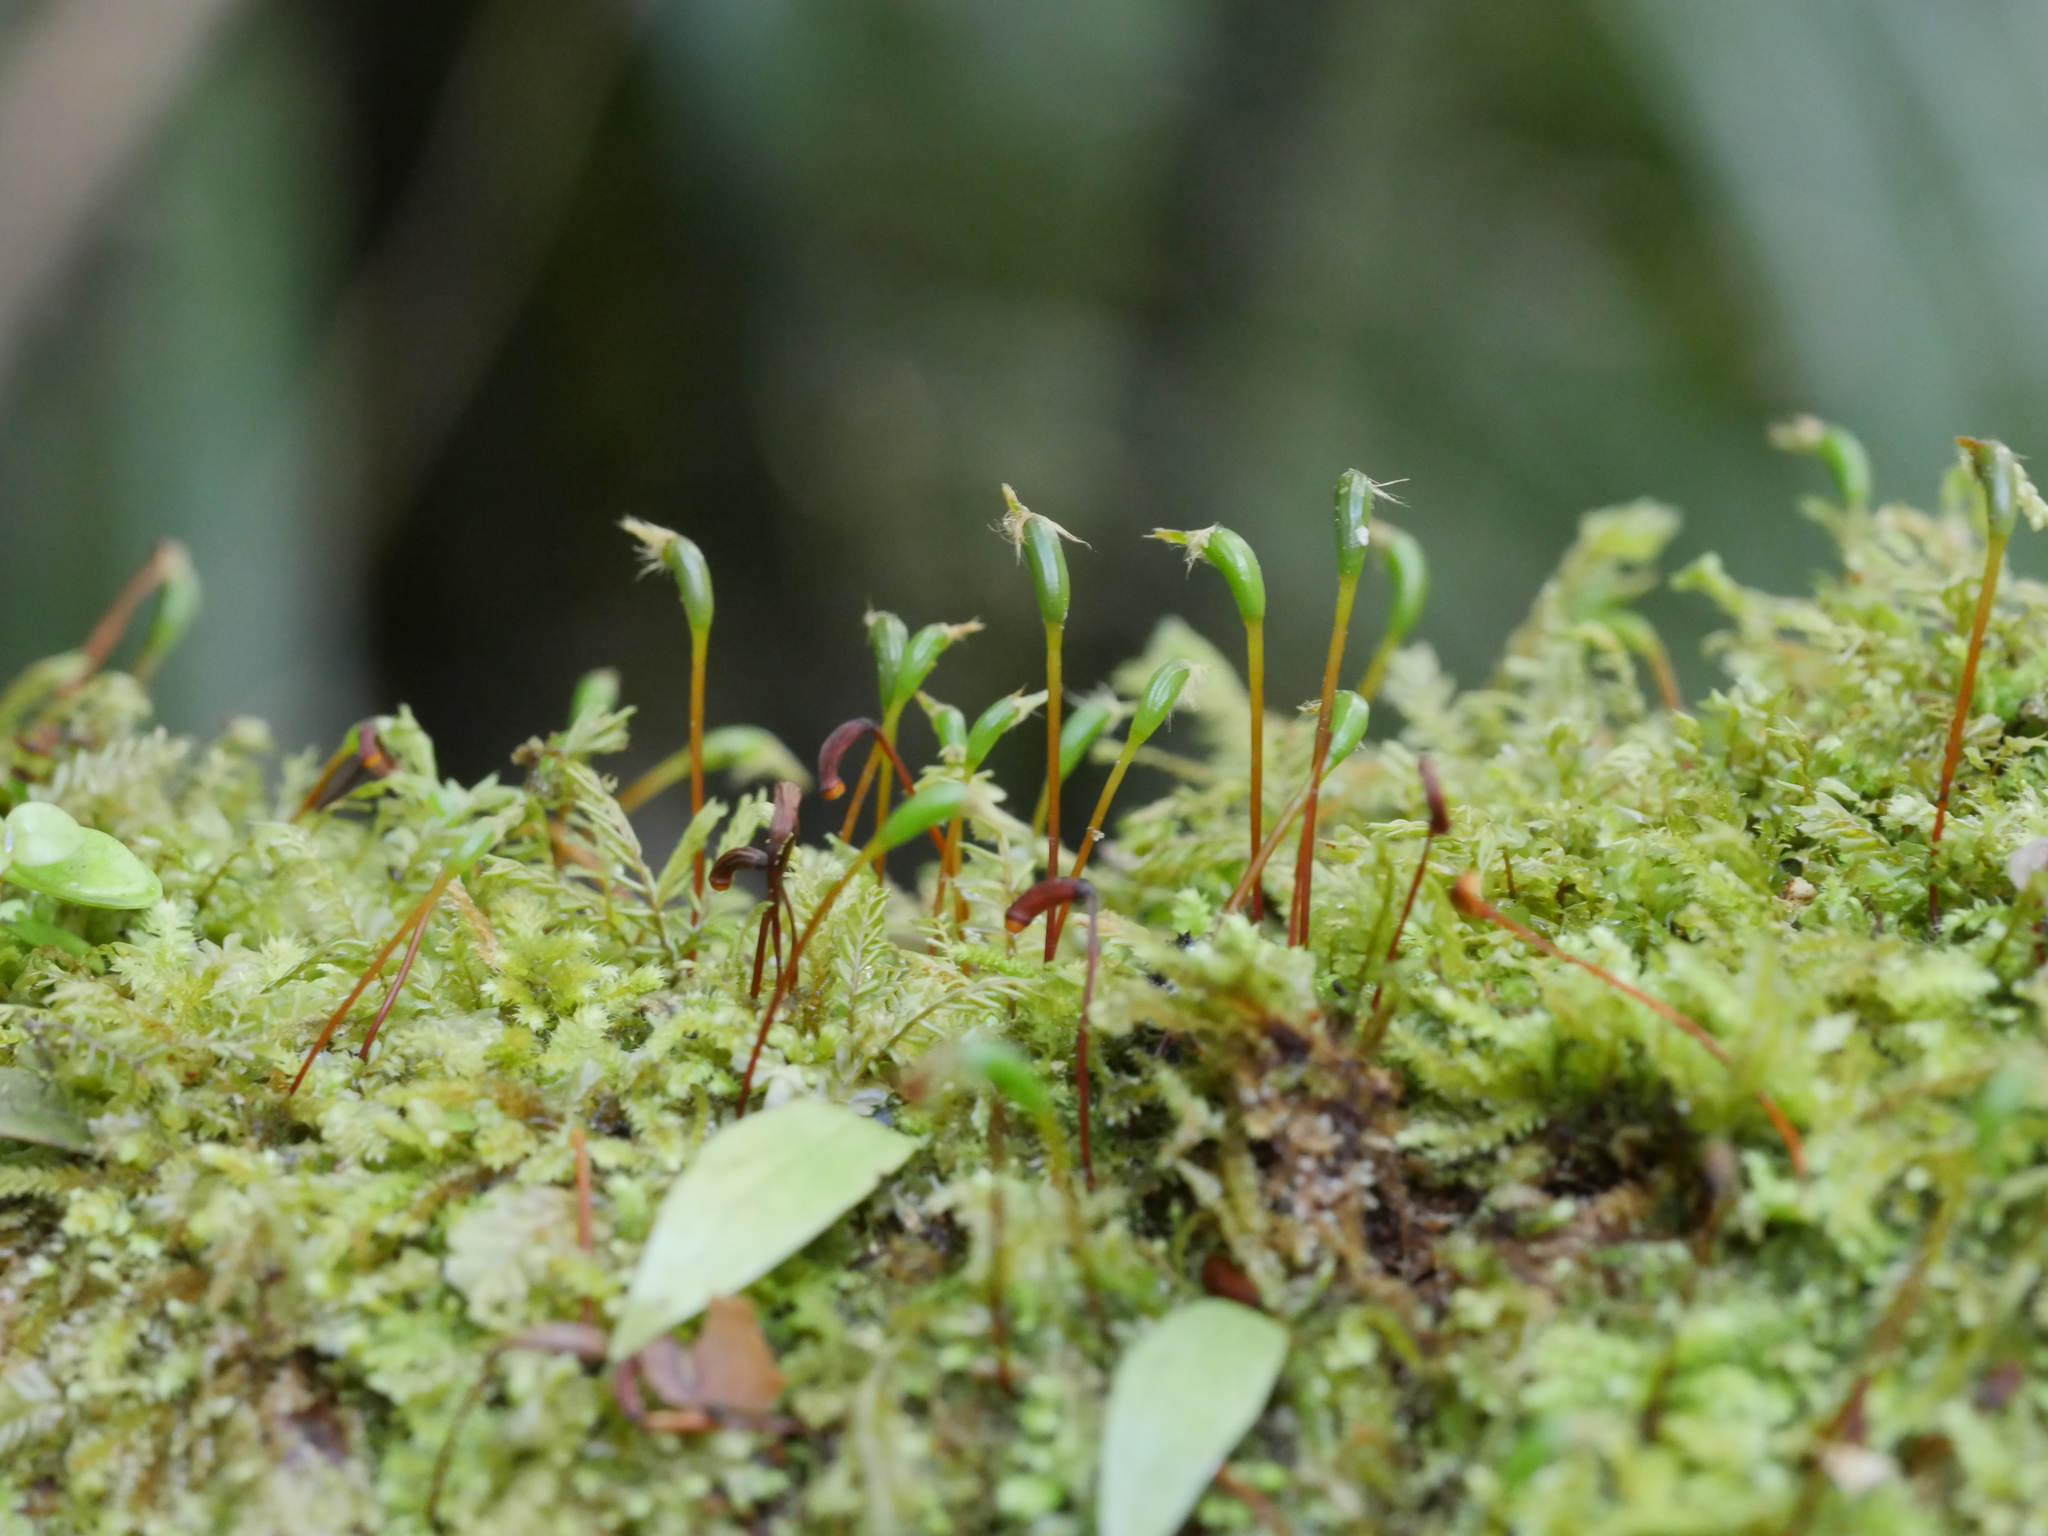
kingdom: Plantae
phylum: Bryophyta
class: Bryopsida
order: Hypnodendrales
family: Racopilaceae
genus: Racopilum
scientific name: Racopilum strumiferum
